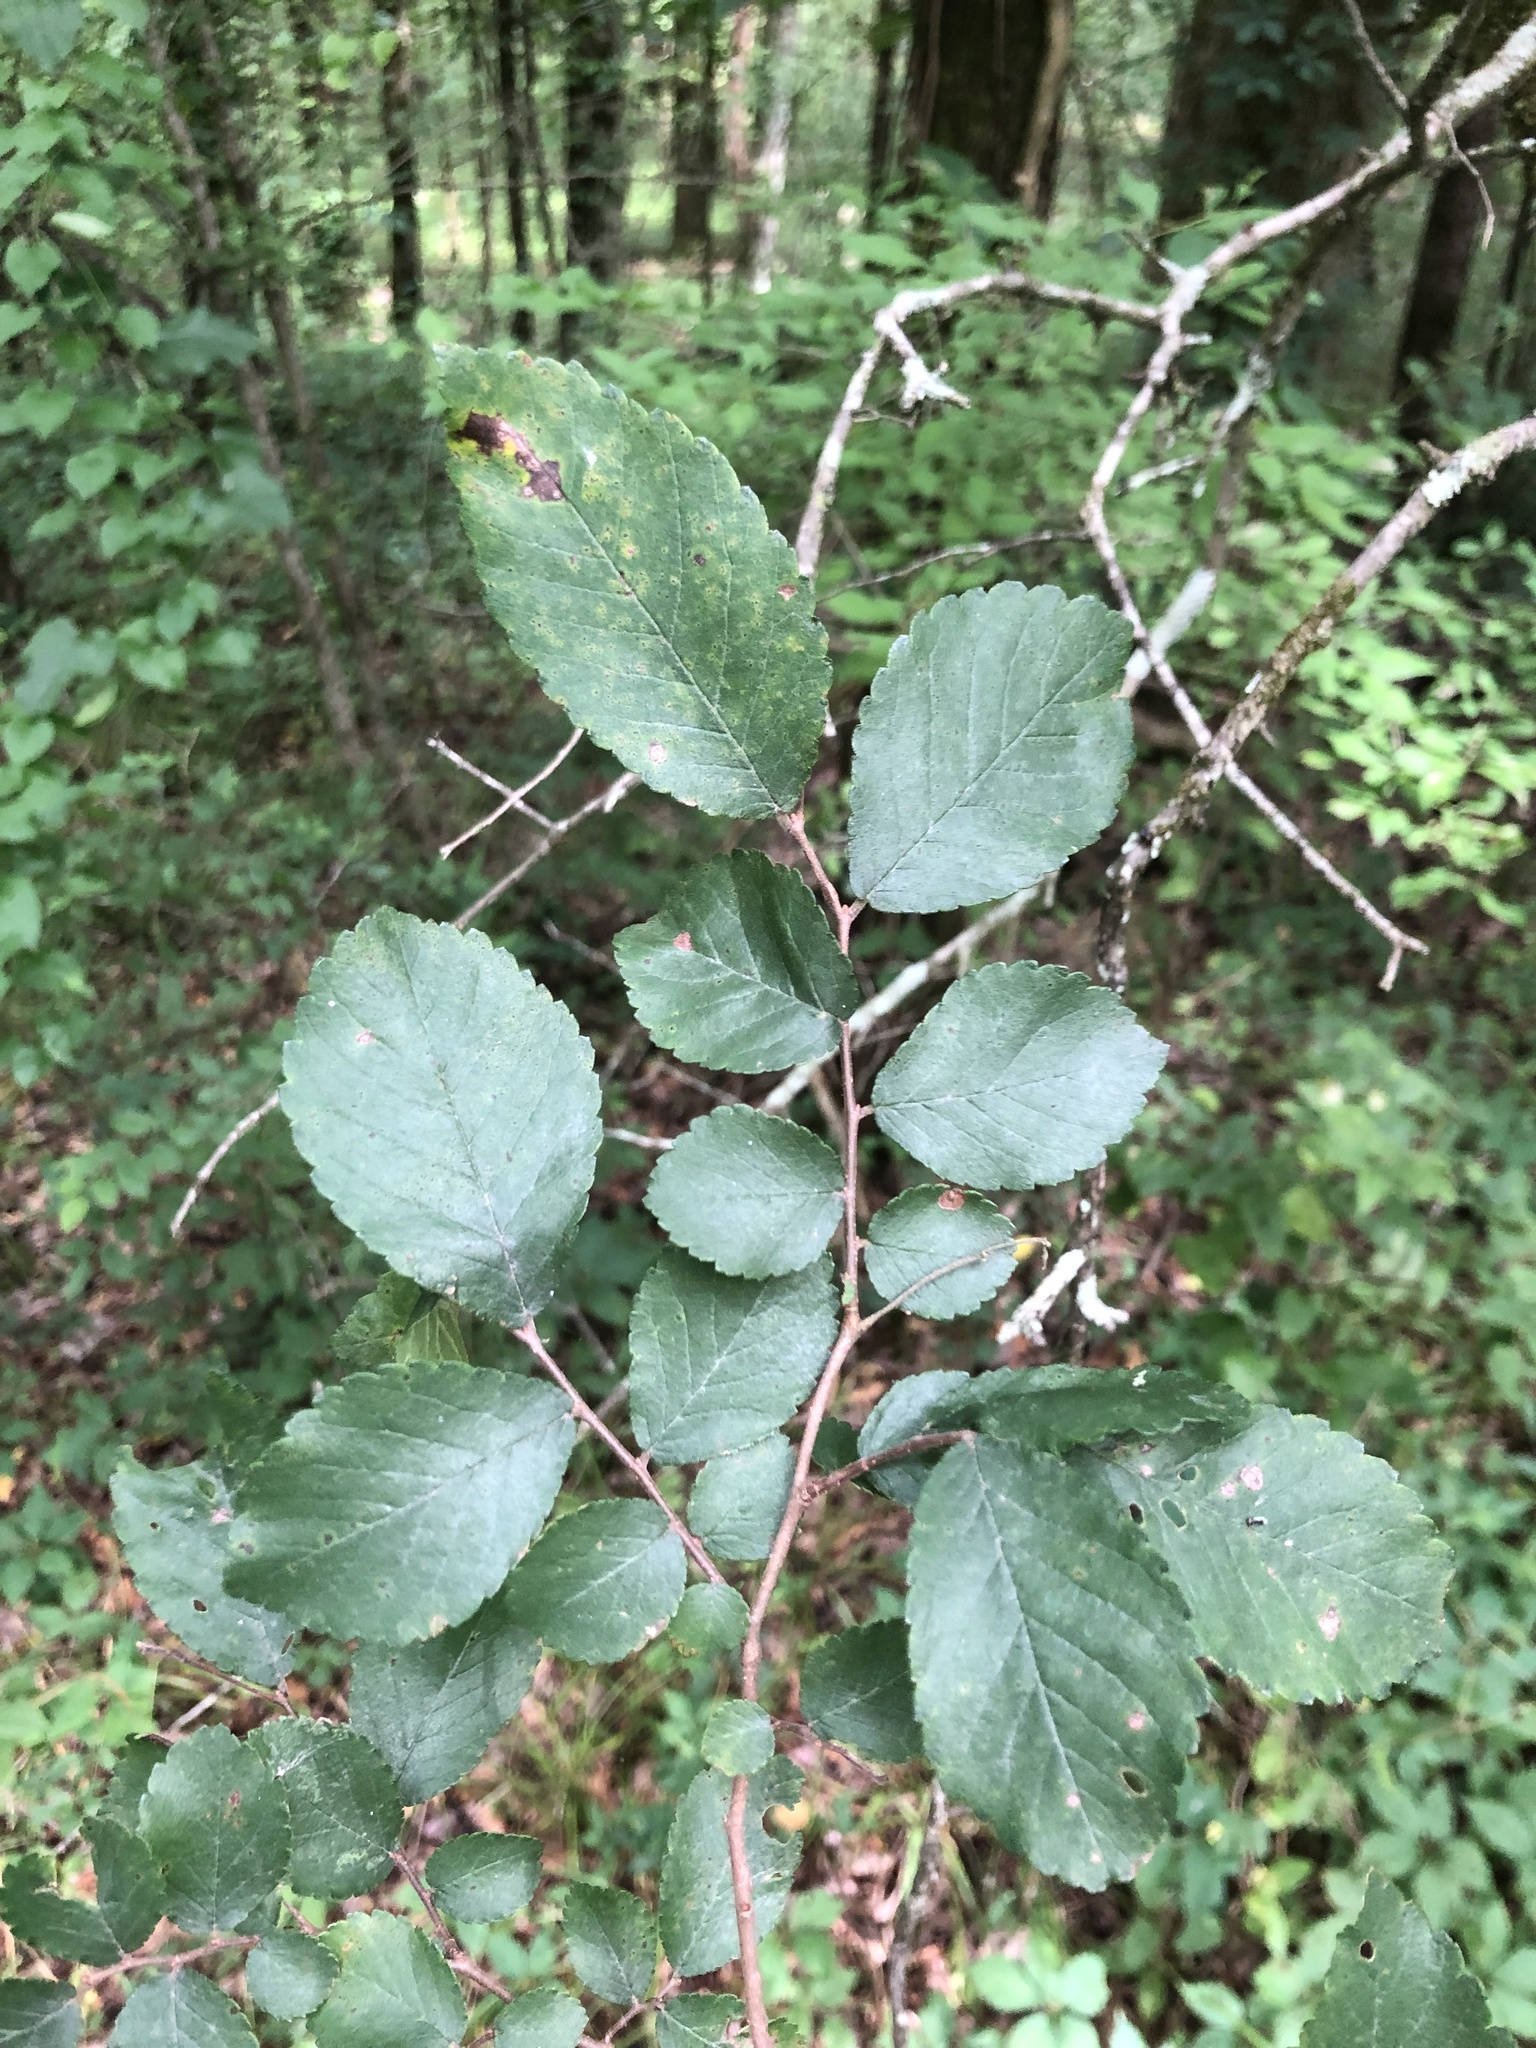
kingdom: Plantae
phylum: Tracheophyta
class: Magnoliopsida
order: Rosales
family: Ulmaceae
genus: Ulmus
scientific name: Ulmus crassifolia
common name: Basket elm
